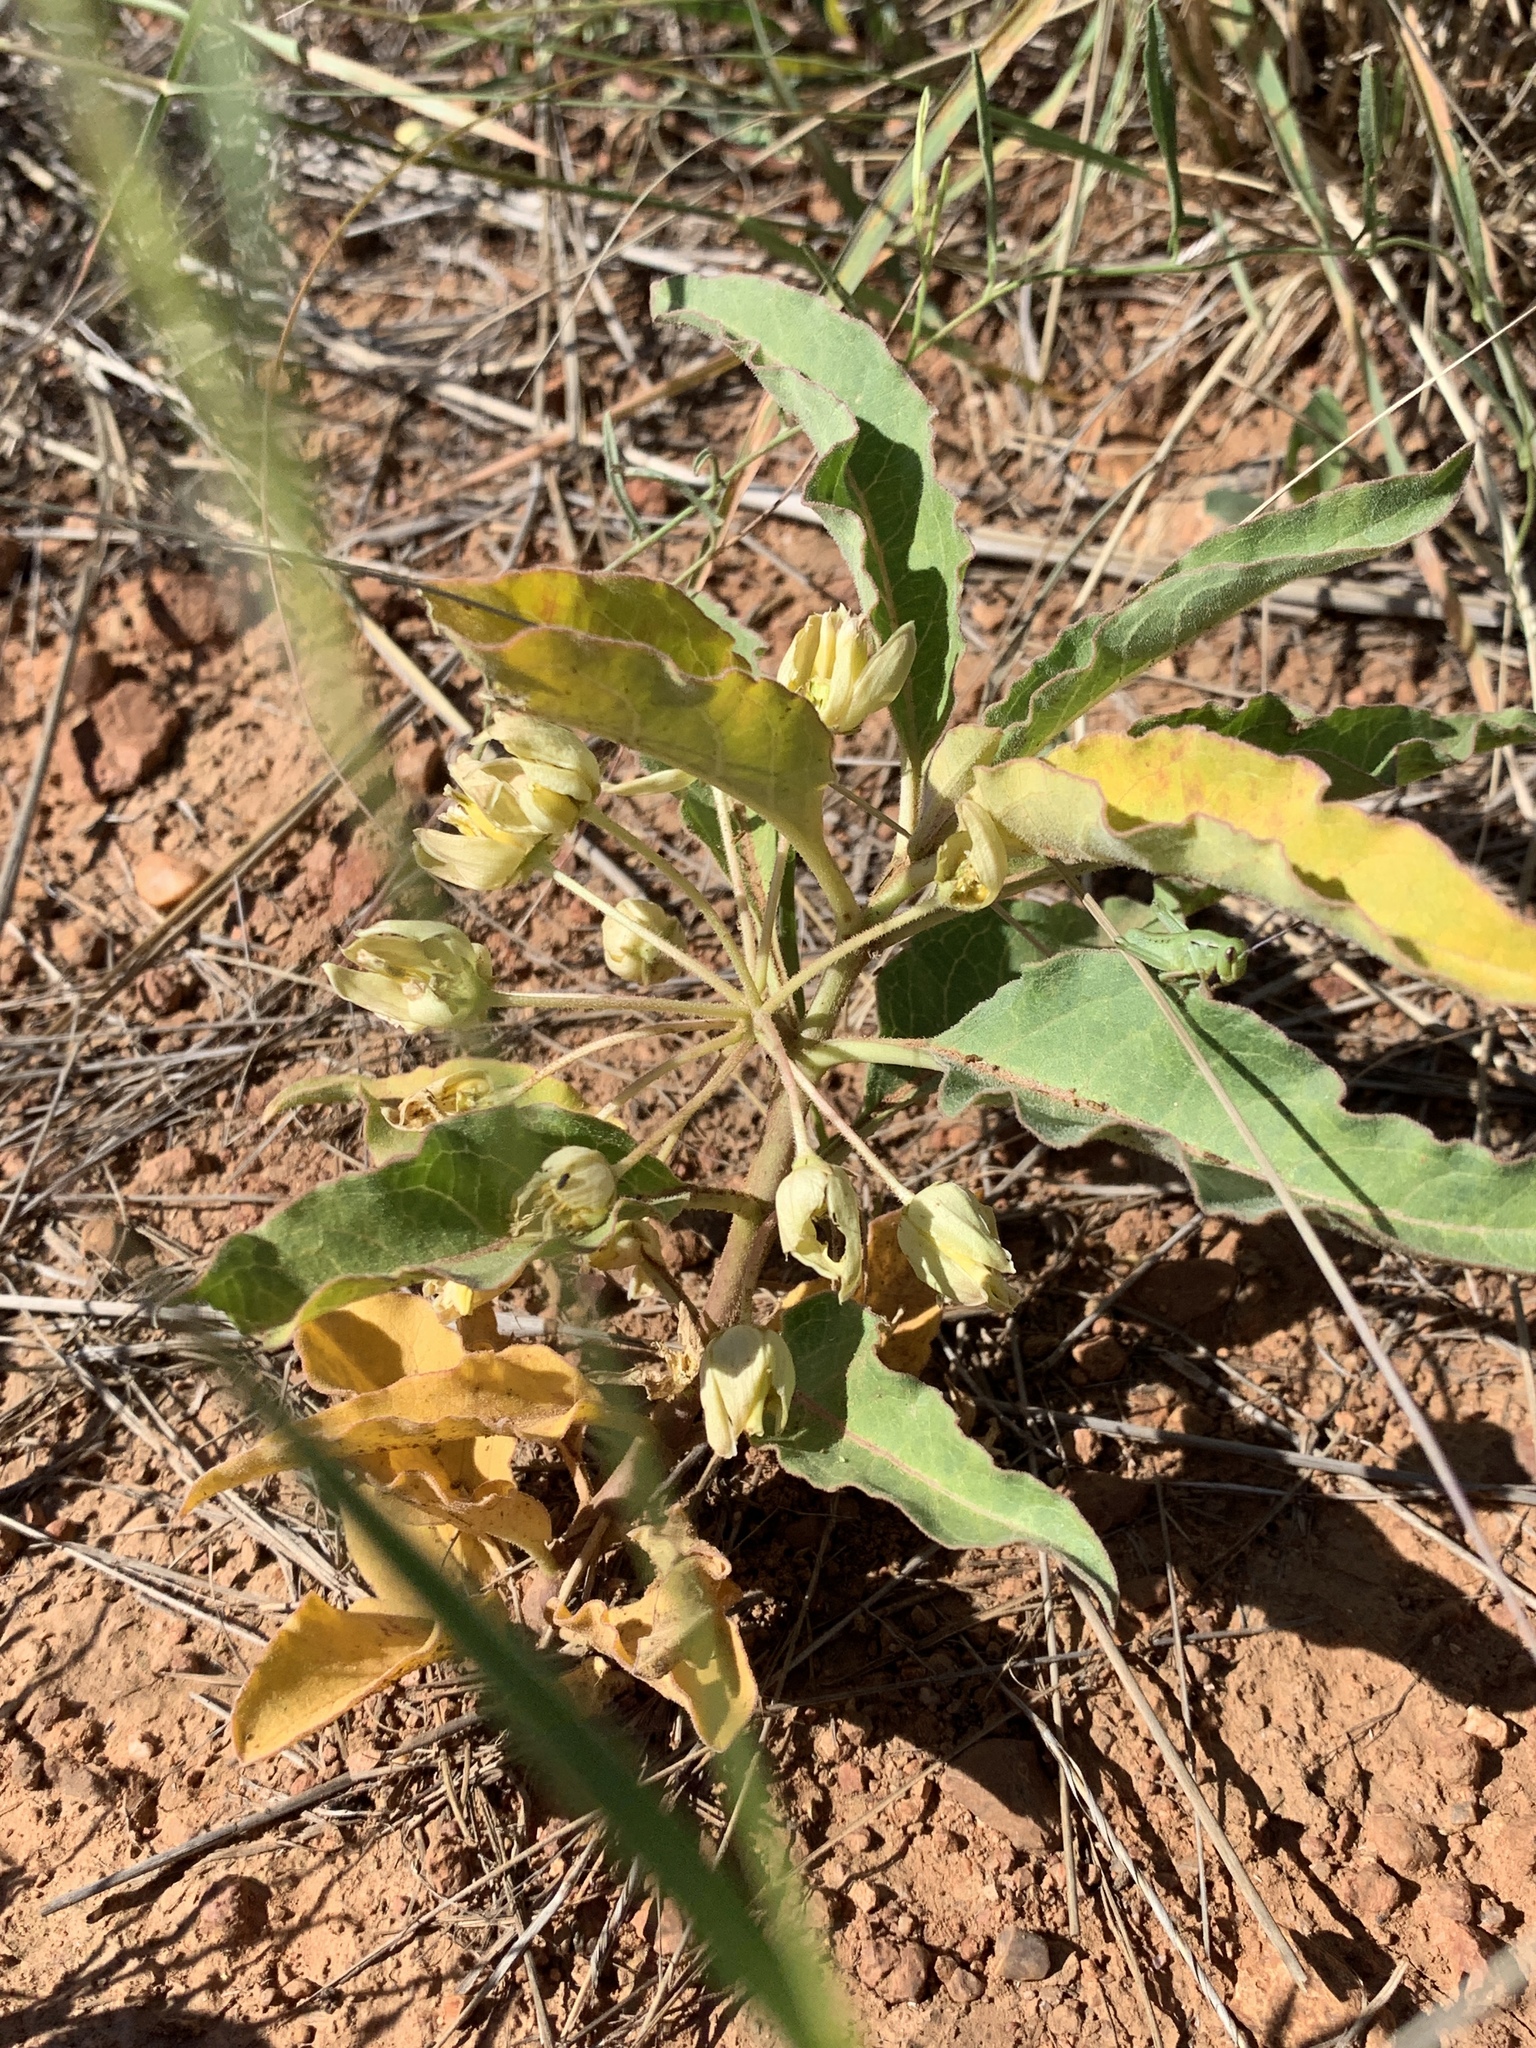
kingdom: Plantae
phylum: Tracheophyta
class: Magnoliopsida
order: Gentianales
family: Apocynaceae
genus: Asclepias
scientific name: Asclepias nyctaginifolia
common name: Mojave milkweed
